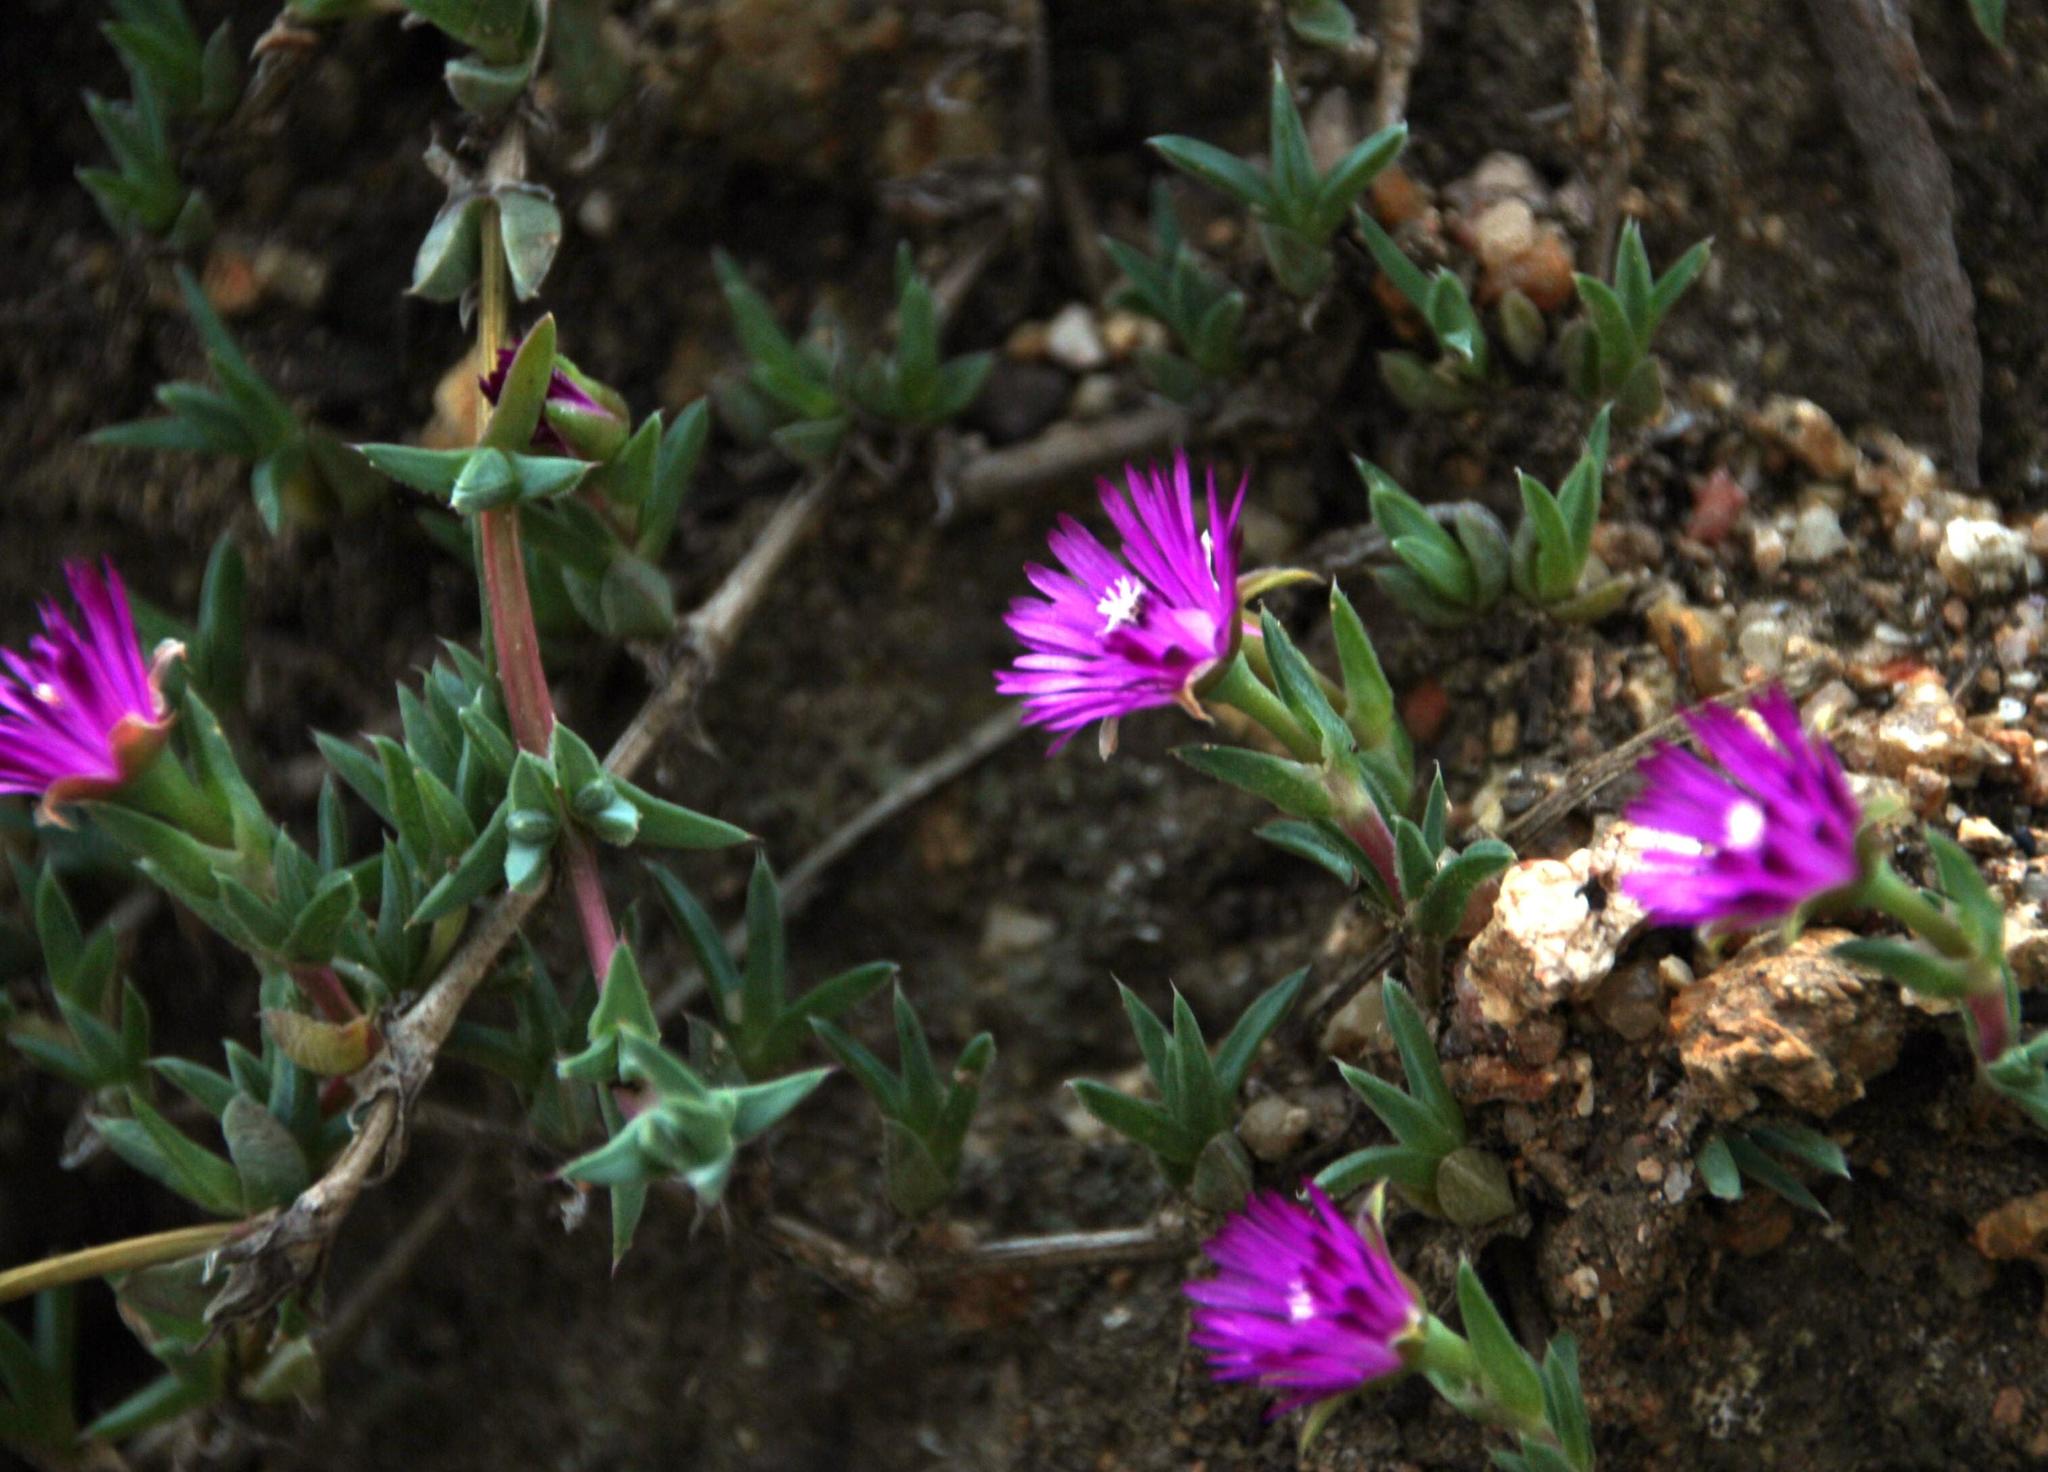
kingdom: Plantae
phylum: Tracheophyta
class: Magnoliopsida
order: Caryophyllales
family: Aizoaceae
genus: Antimima
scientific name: Antimima aristulata
